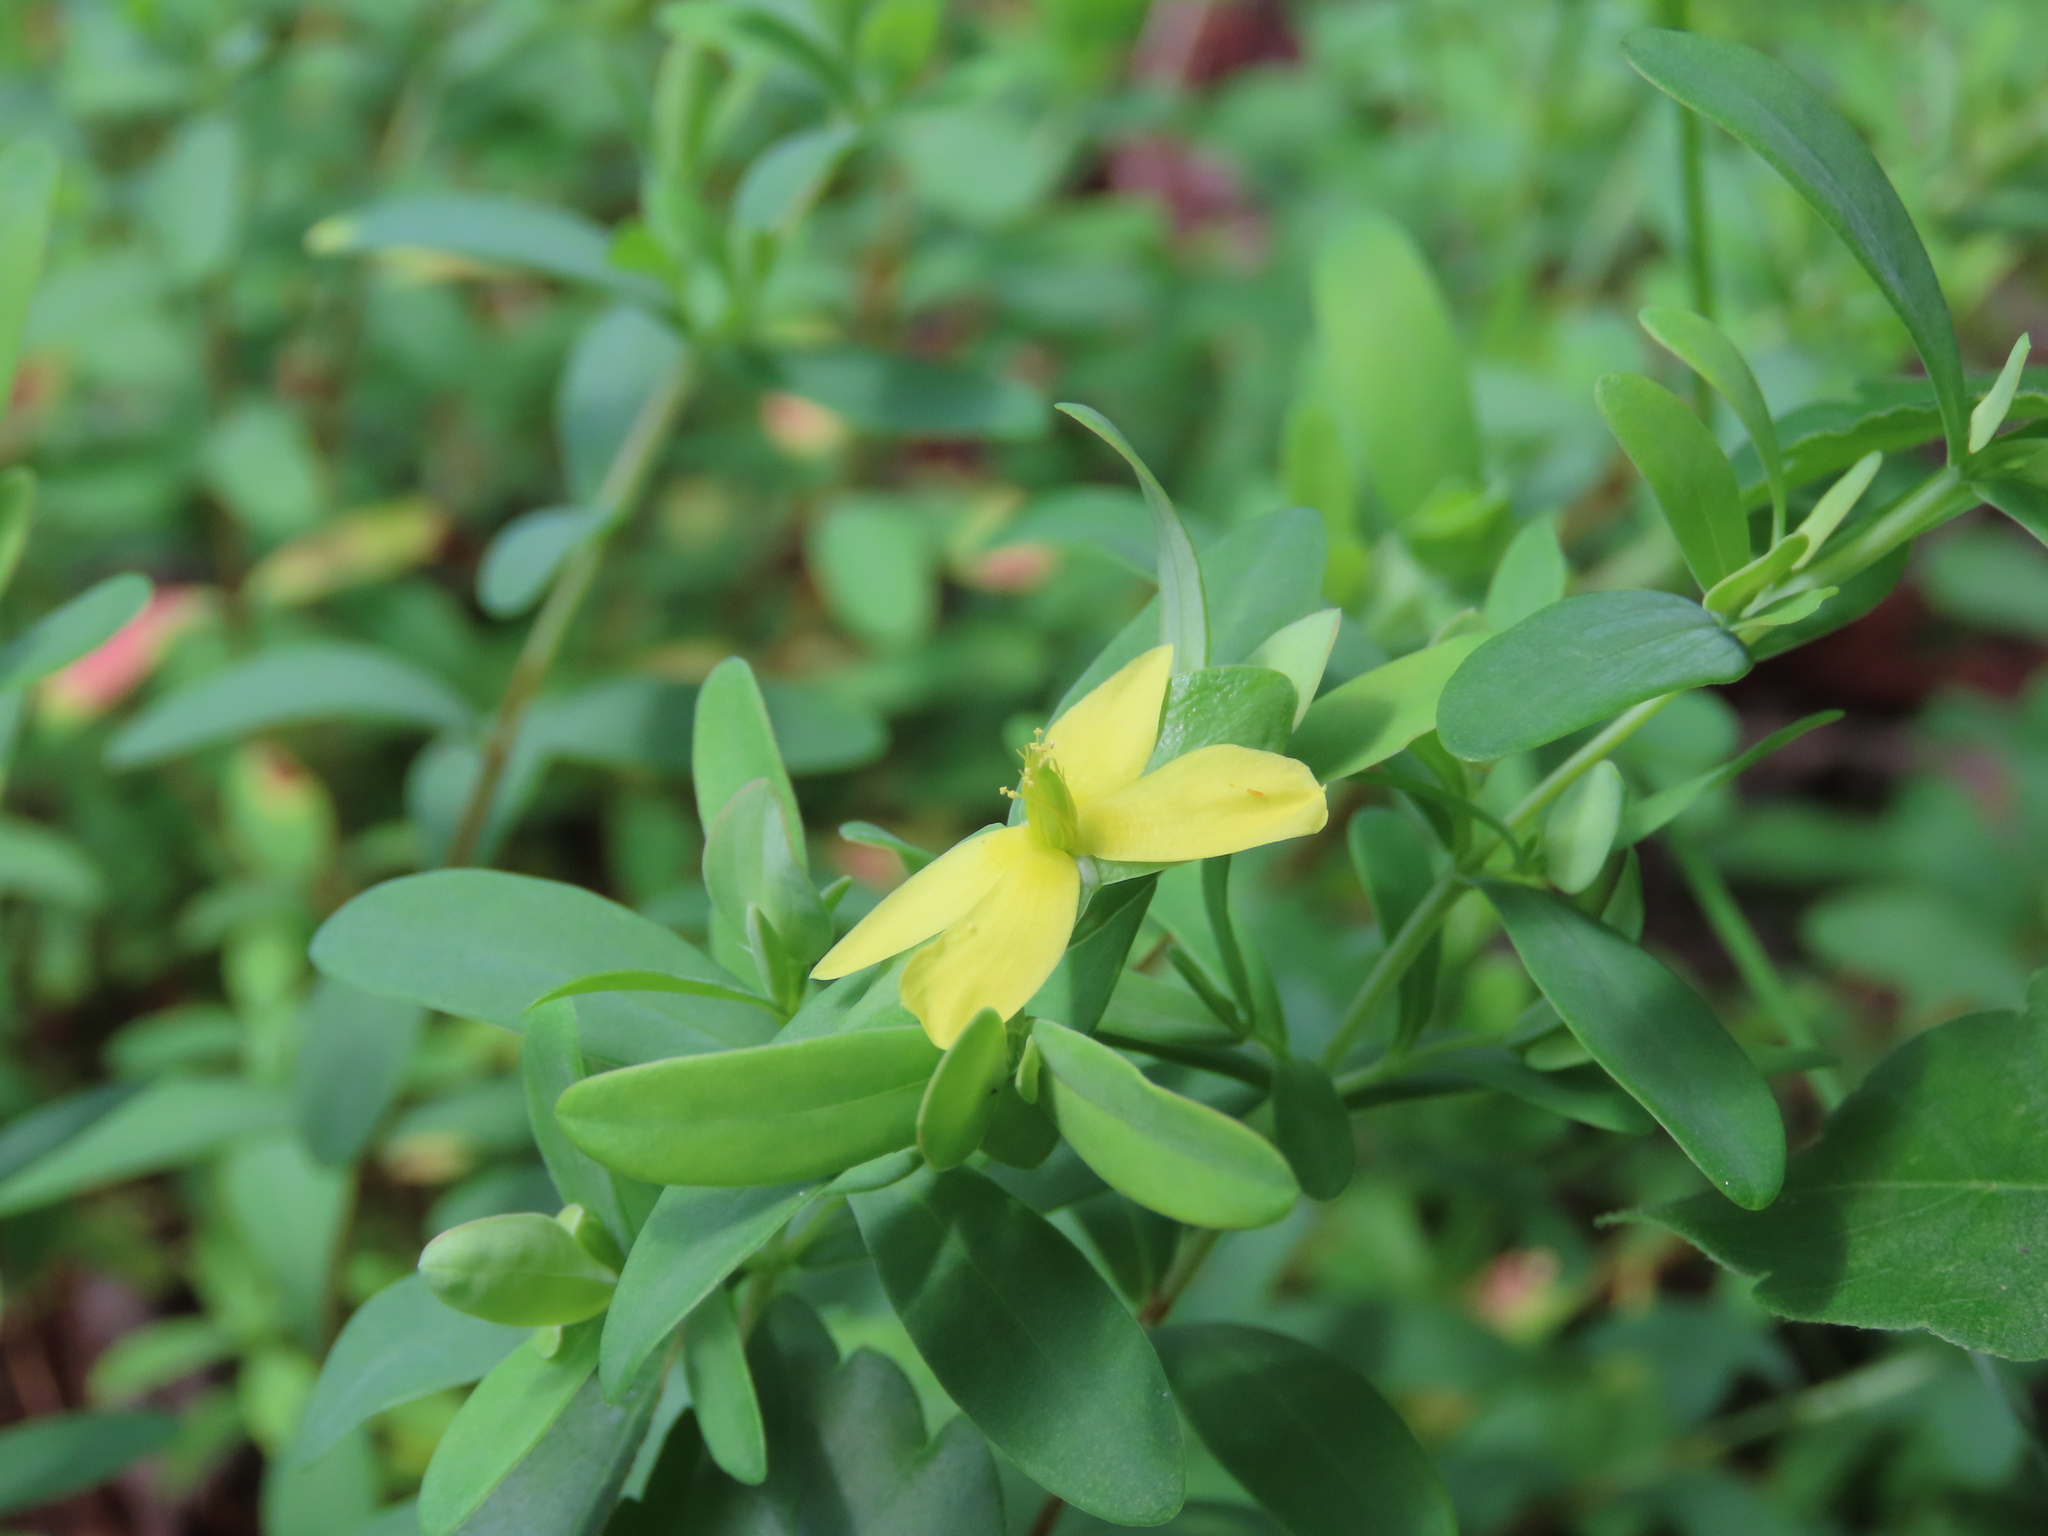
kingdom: Plantae
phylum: Tracheophyta
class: Magnoliopsida
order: Malpighiales
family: Hypericaceae
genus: Hypericum
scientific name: Hypericum hypericoides
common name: St. andrew's cross
